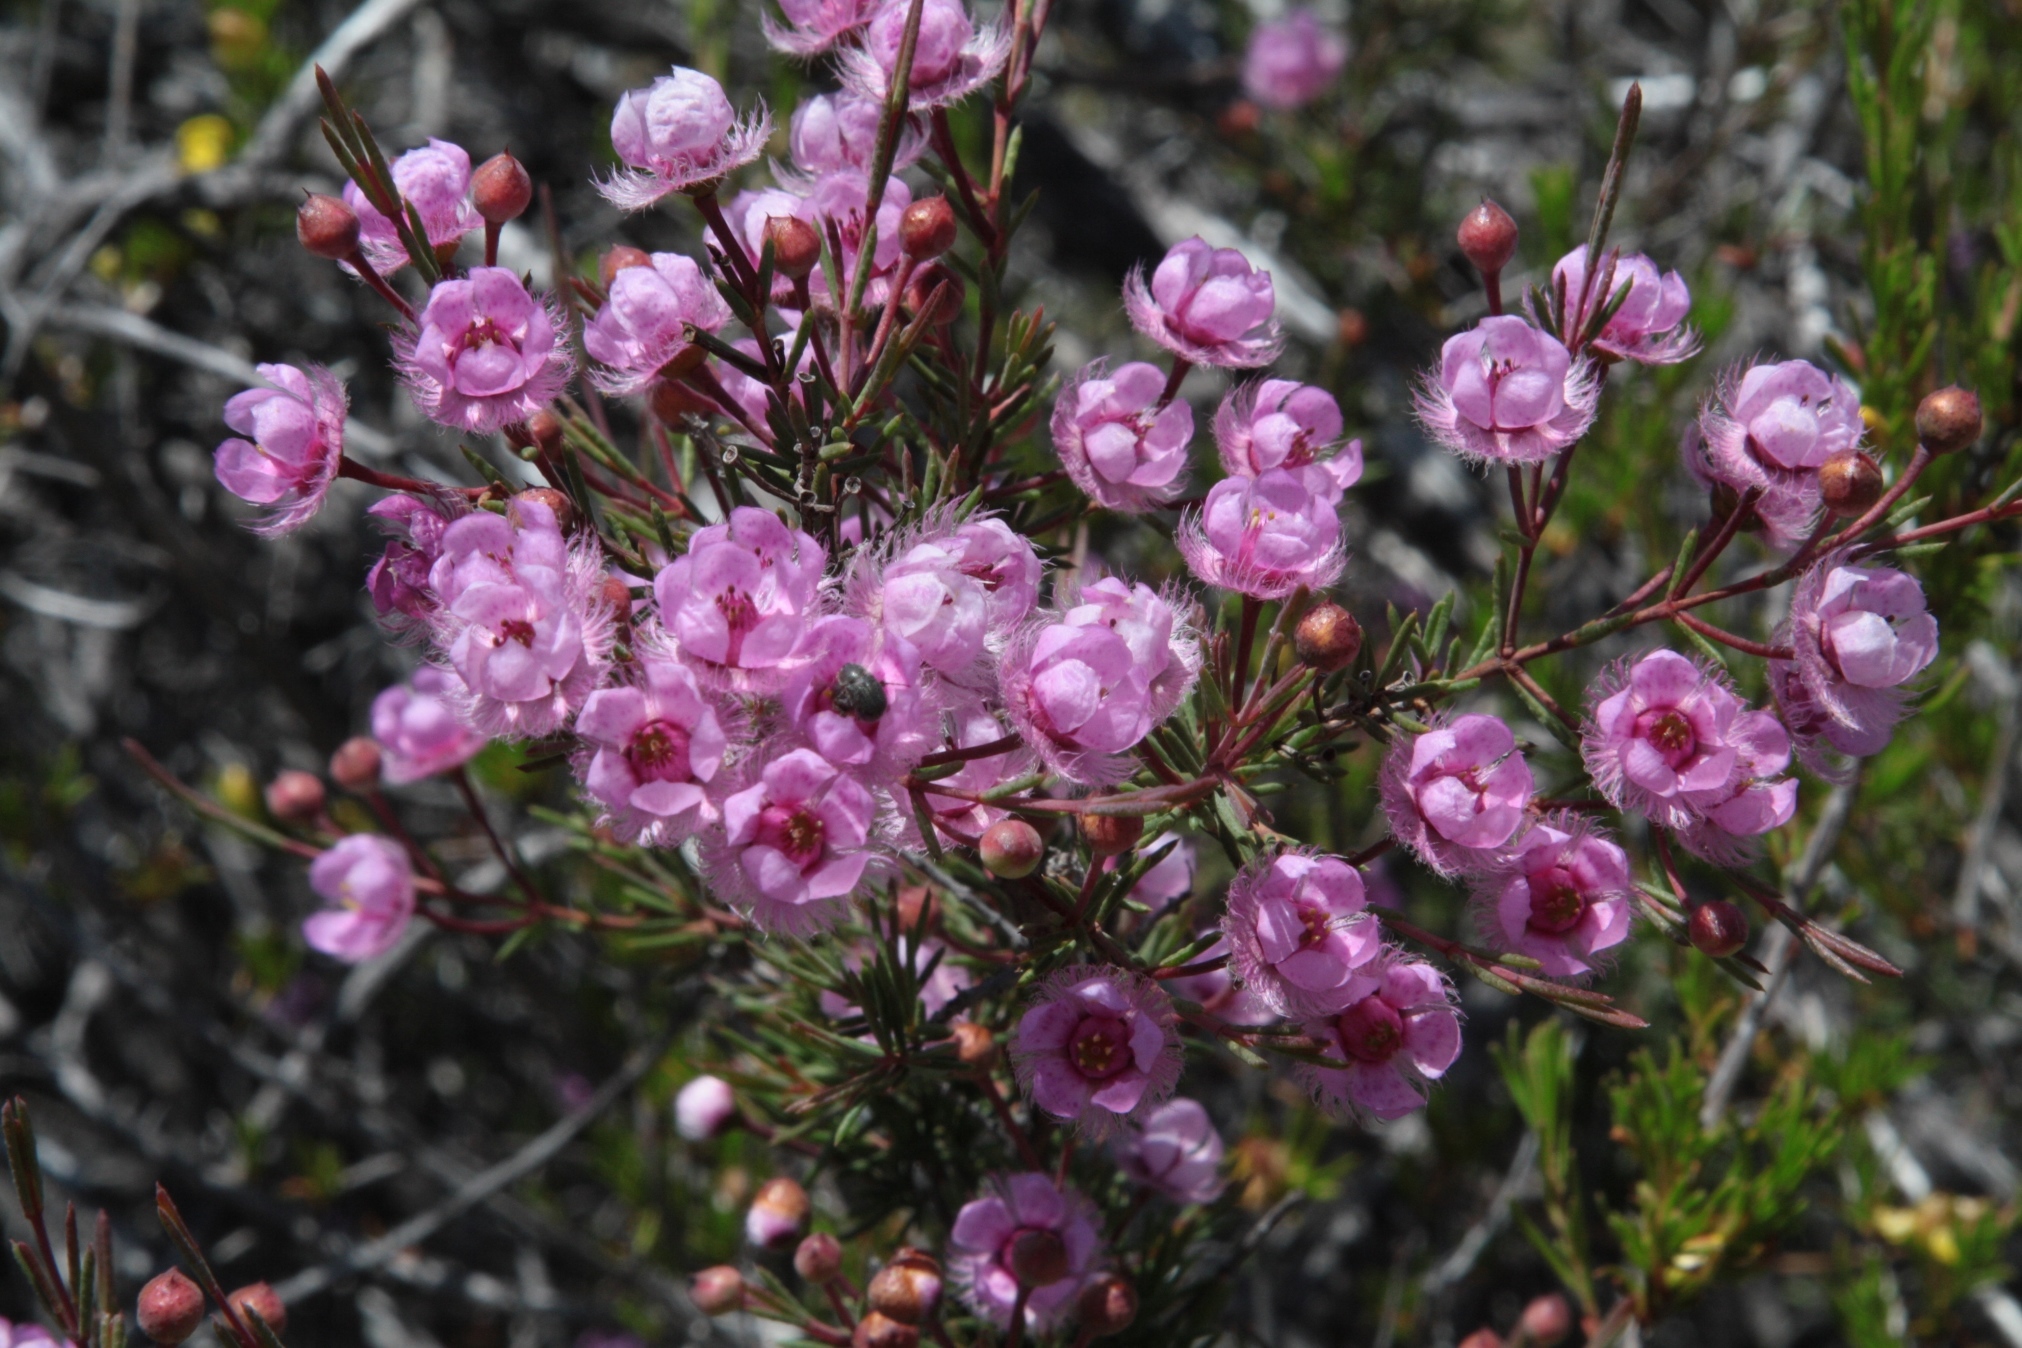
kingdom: Plantae
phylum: Tracheophyta
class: Magnoliopsida
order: Myrtales
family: Myrtaceae
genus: Verticordia
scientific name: Verticordia picta
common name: Painted feather-flower
